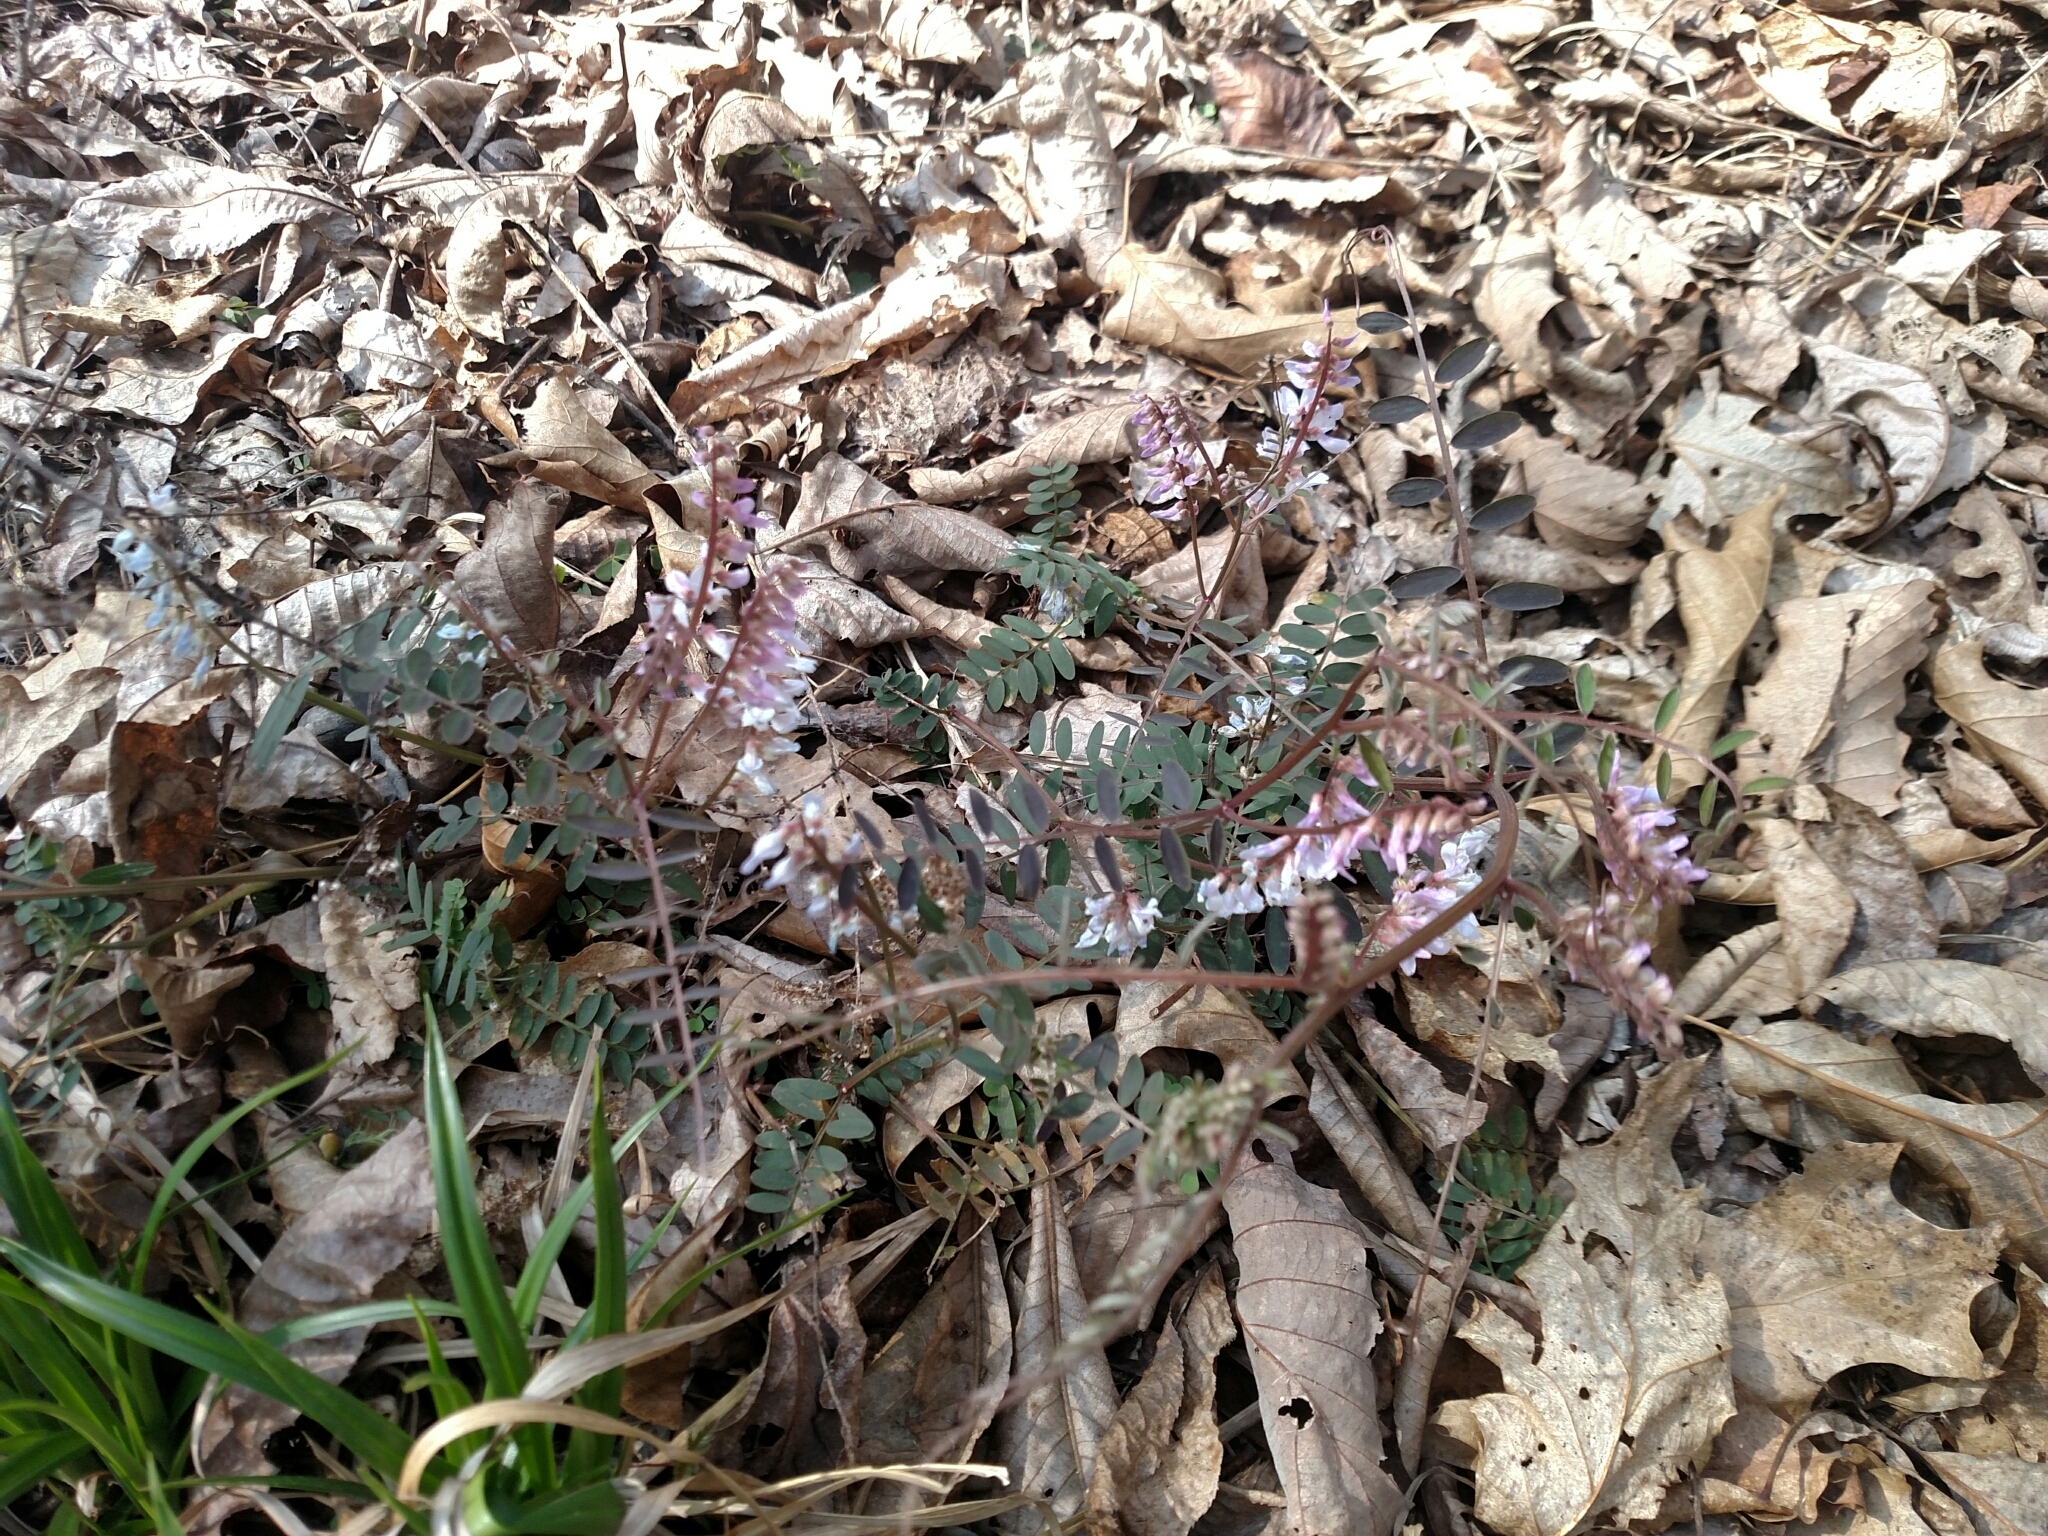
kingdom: Plantae
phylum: Tracheophyta
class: Magnoliopsida
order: Fabales
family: Fabaceae
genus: Vicia
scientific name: Vicia caroliniana
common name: Carolina vetch
